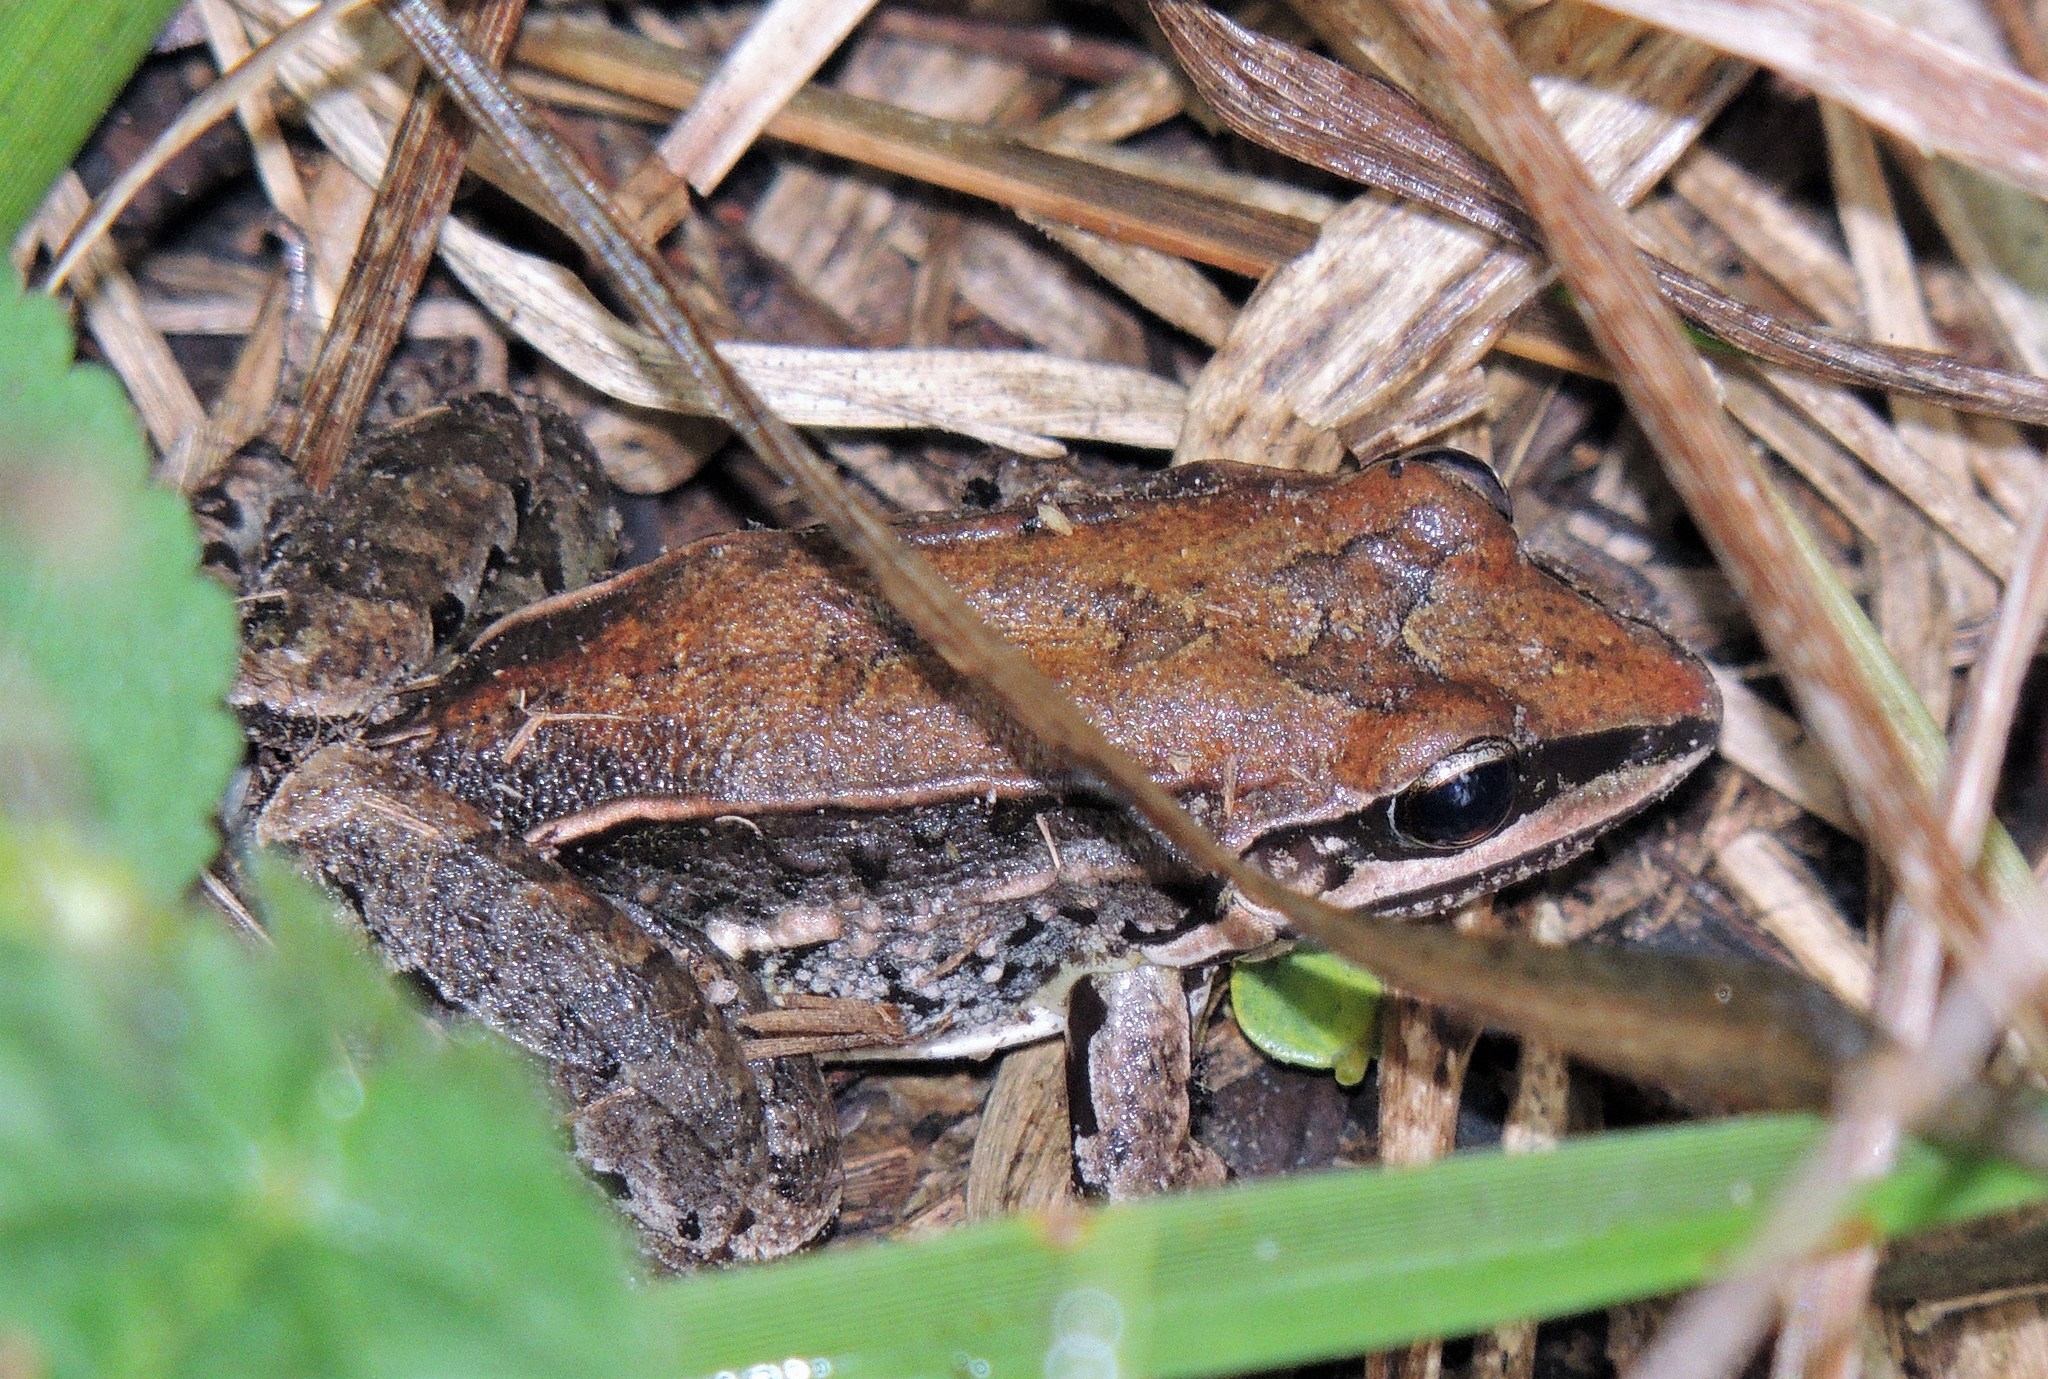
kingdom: Animalia
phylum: Chordata
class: Amphibia
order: Anura
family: Leptodactylidae
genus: Leptodactylus
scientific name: Leptodactylus mystacinus
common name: Moustached frog
